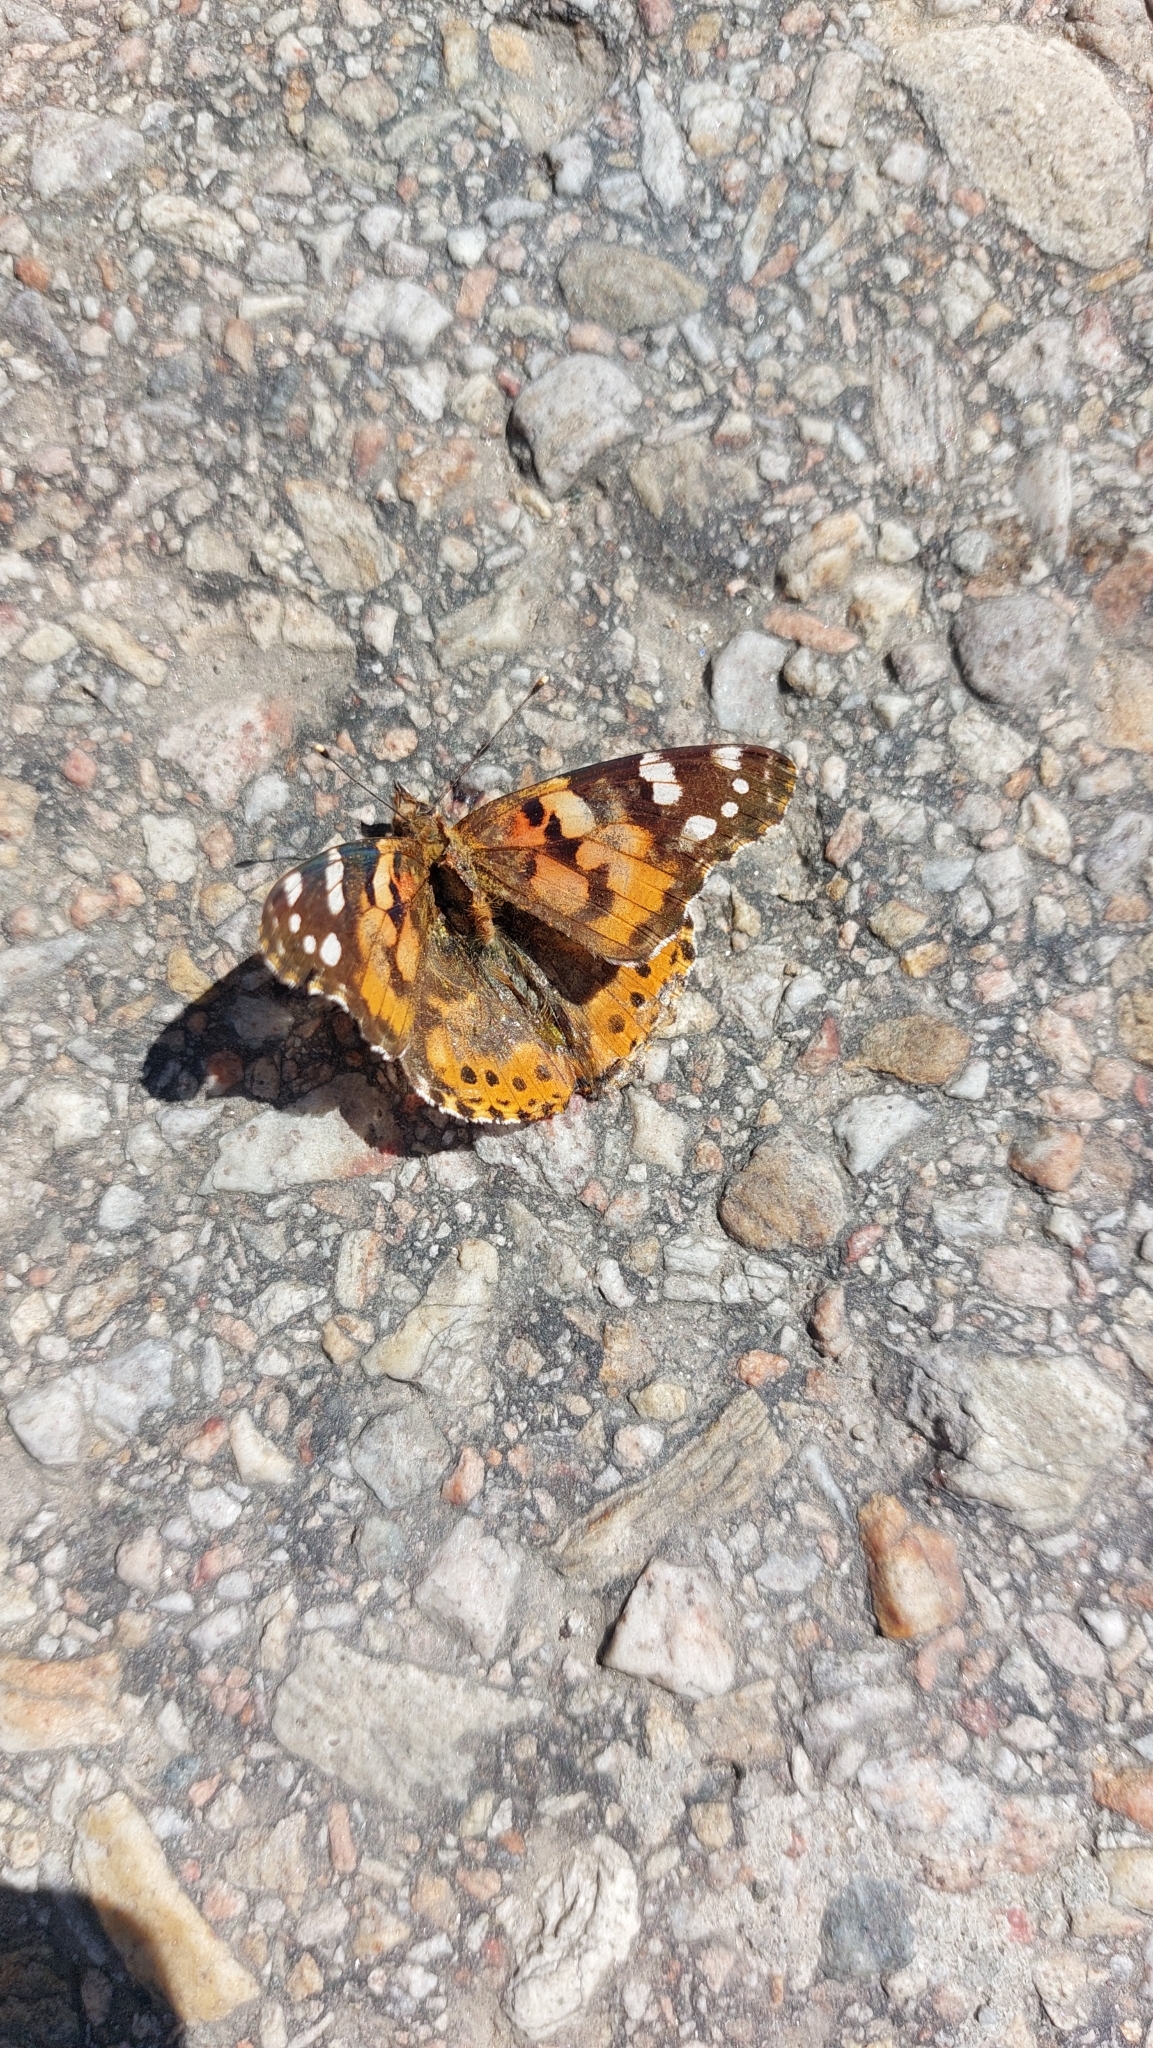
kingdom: Animalia
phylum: Arthropoda
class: Insecta
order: Lepidoptera
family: Nymphalidae
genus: Vanessa
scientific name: Vanessa cardui
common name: Painted lady
